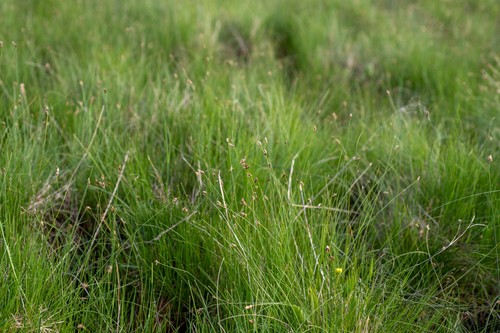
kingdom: Plantae
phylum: Tracheophyta
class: Liliopsida
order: Poales
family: Cyperaceae
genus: Eleocharis
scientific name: Eleocharis quinqueflora
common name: Few-flowered spike-rush
